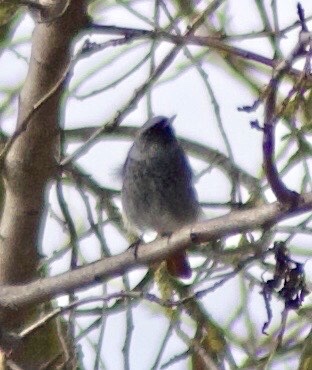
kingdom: Animalia
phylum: Chordata
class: Aves
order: Passeriformes
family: Muscicapidae
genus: Phoenicurus
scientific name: Phoenicurus ochruros
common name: Black redstart
